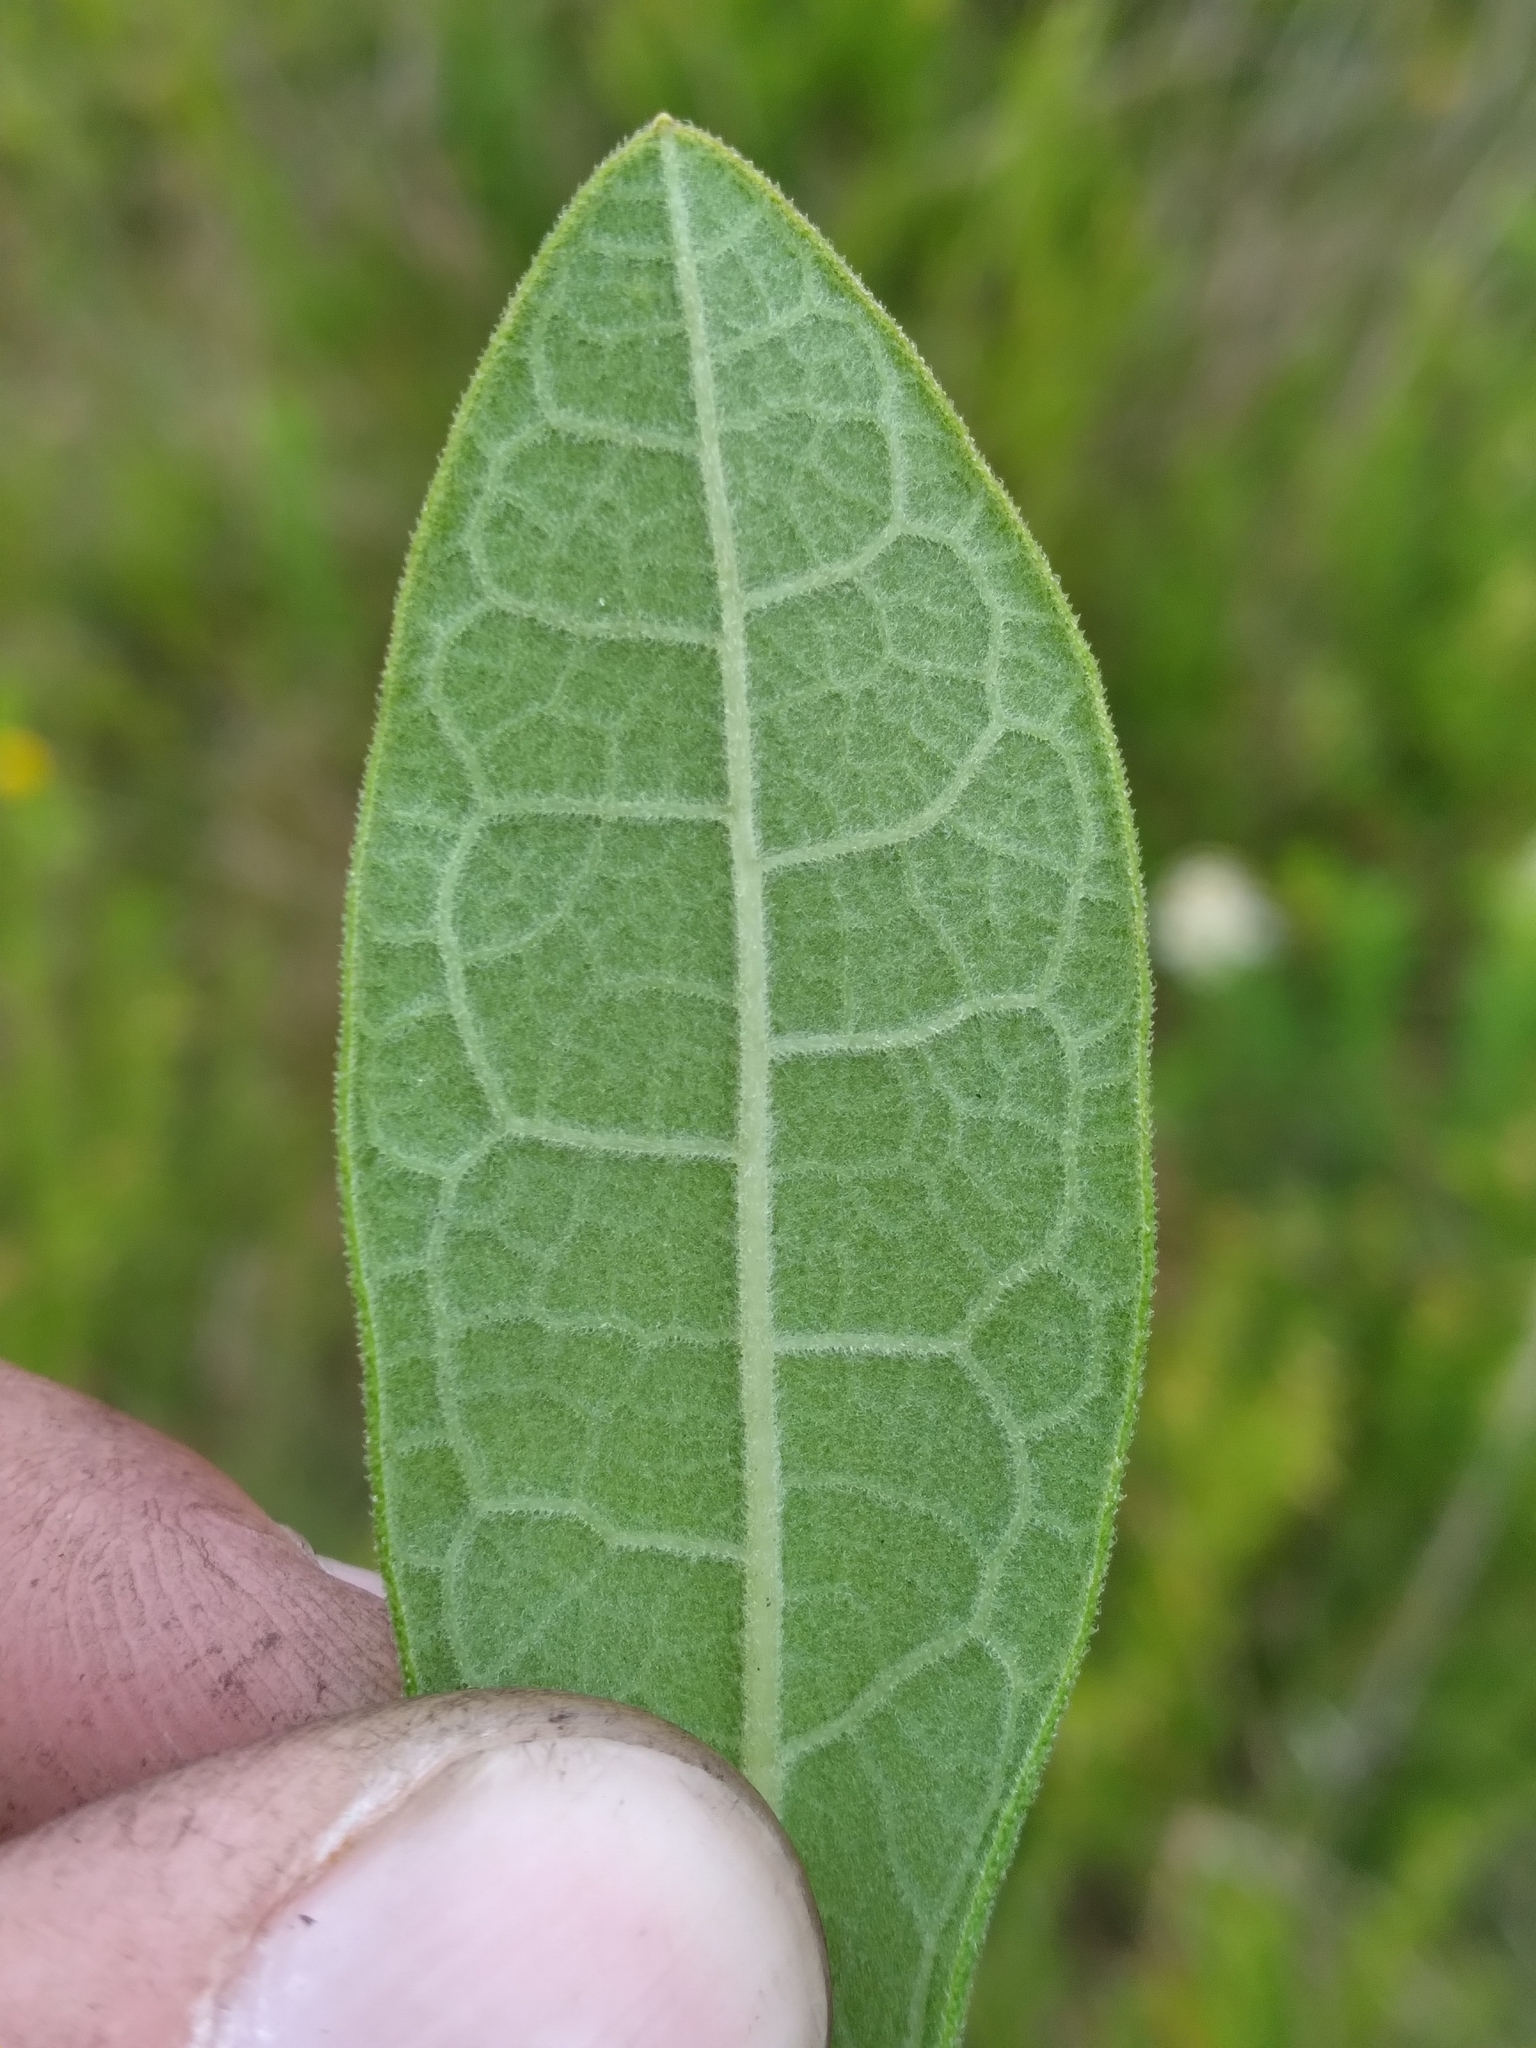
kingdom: Plantae
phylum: Tracheophyta
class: Magnoliopsida
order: Asterales
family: Asteraceae
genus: Oclemena
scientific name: Oclemena reticulata
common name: Pinebarren aster
